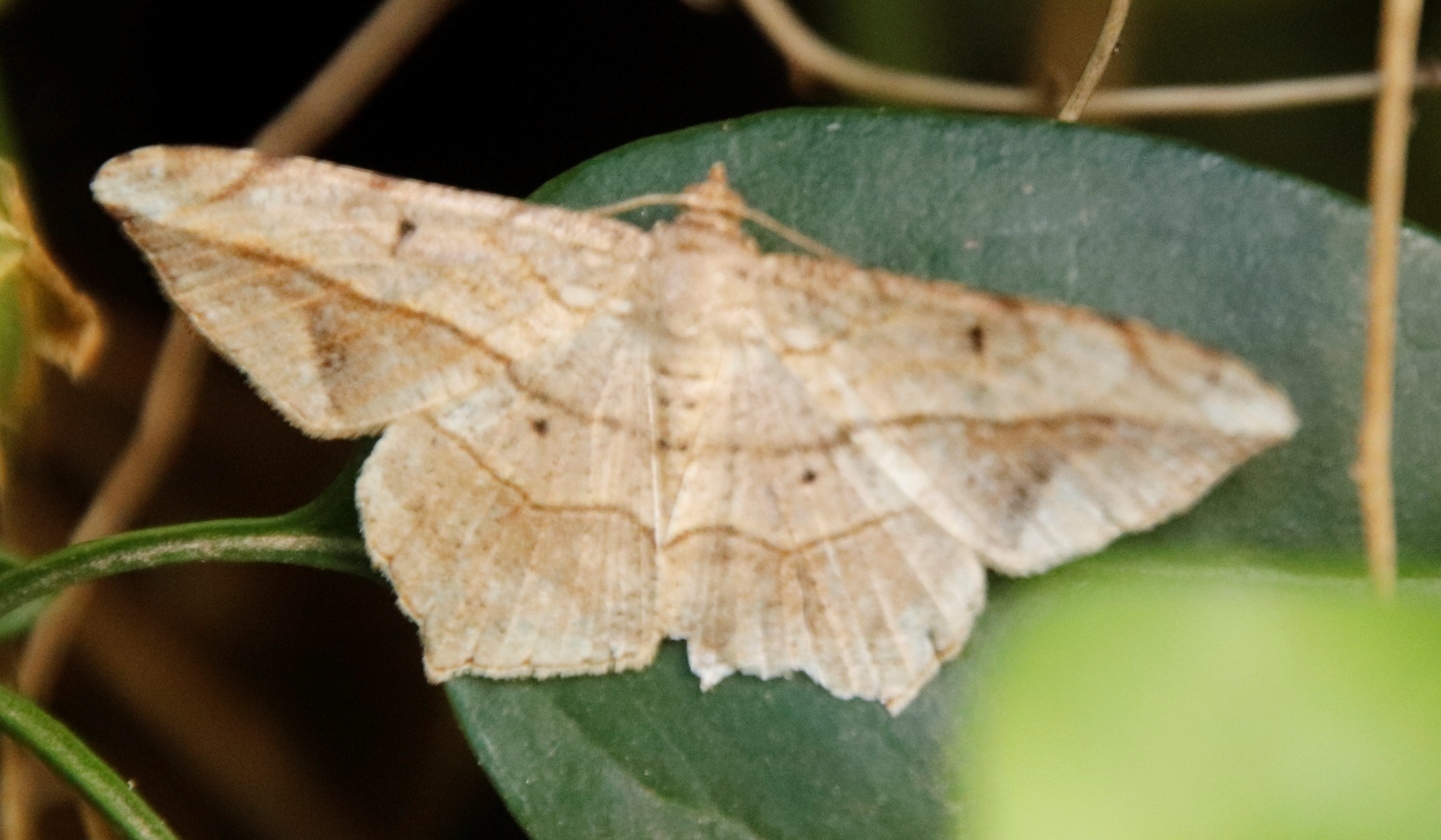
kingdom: Animalia
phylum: Arthropoda
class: Insecta
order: Lepidoptera
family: Geometridae
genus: Chiasmia
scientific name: Chiasmia simplicilinea
